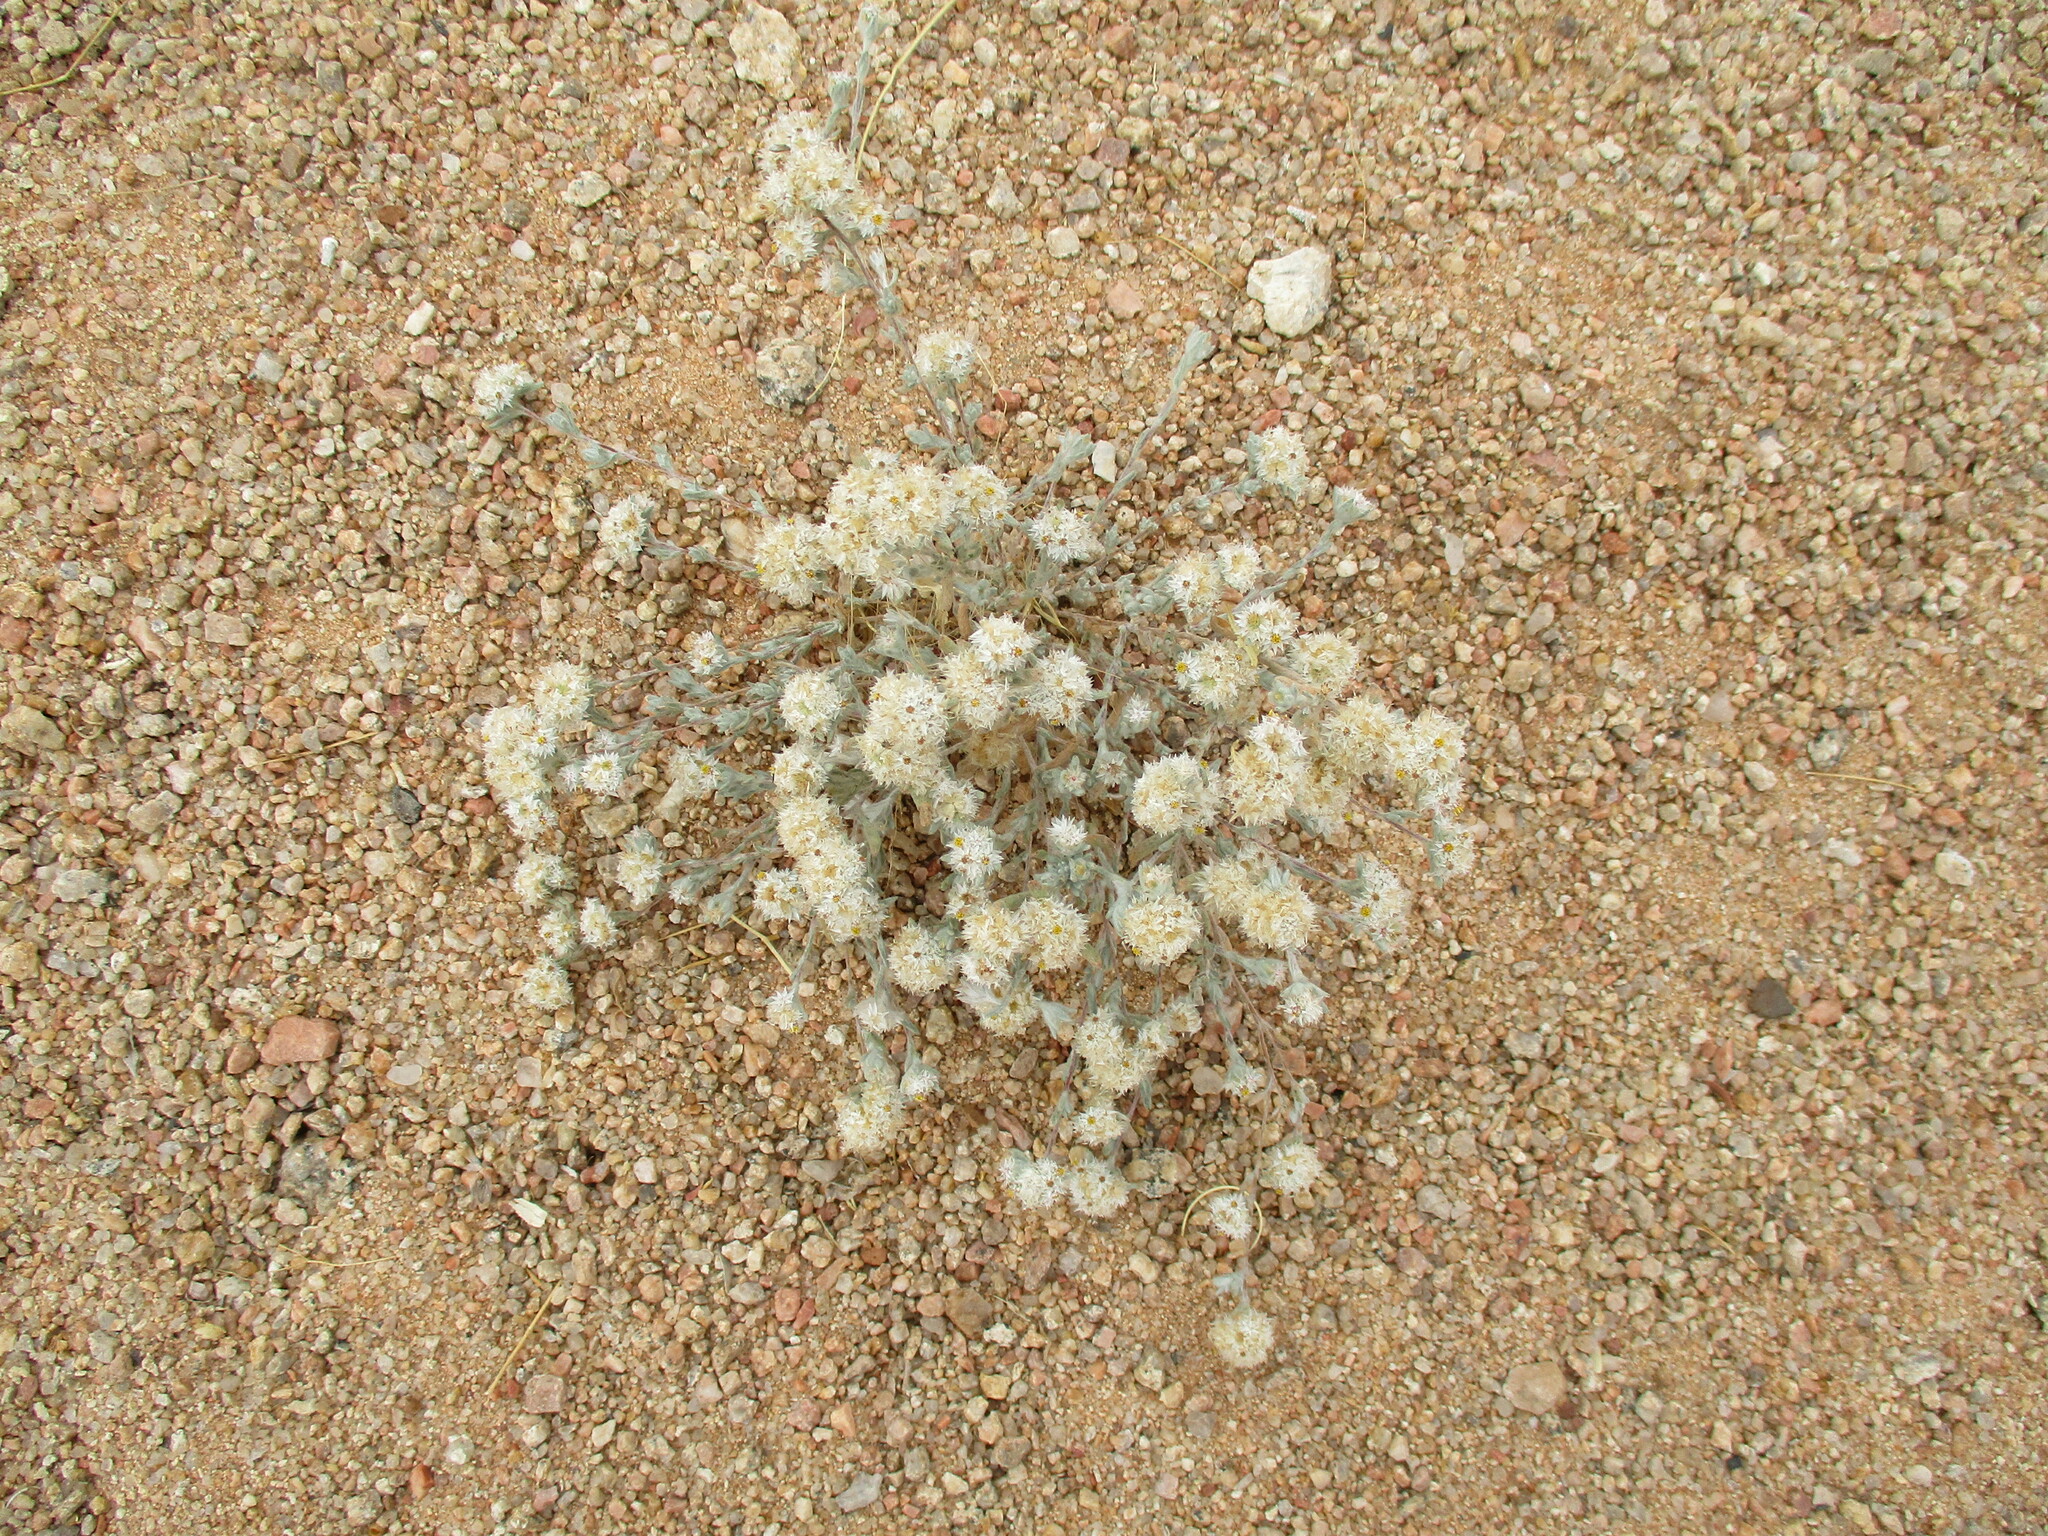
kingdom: Plantae
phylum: Tracheophyta
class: Magnoliopsida
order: Asterales
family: Asteraceae
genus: Helichrysum
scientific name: Helichrysum candolleanum
